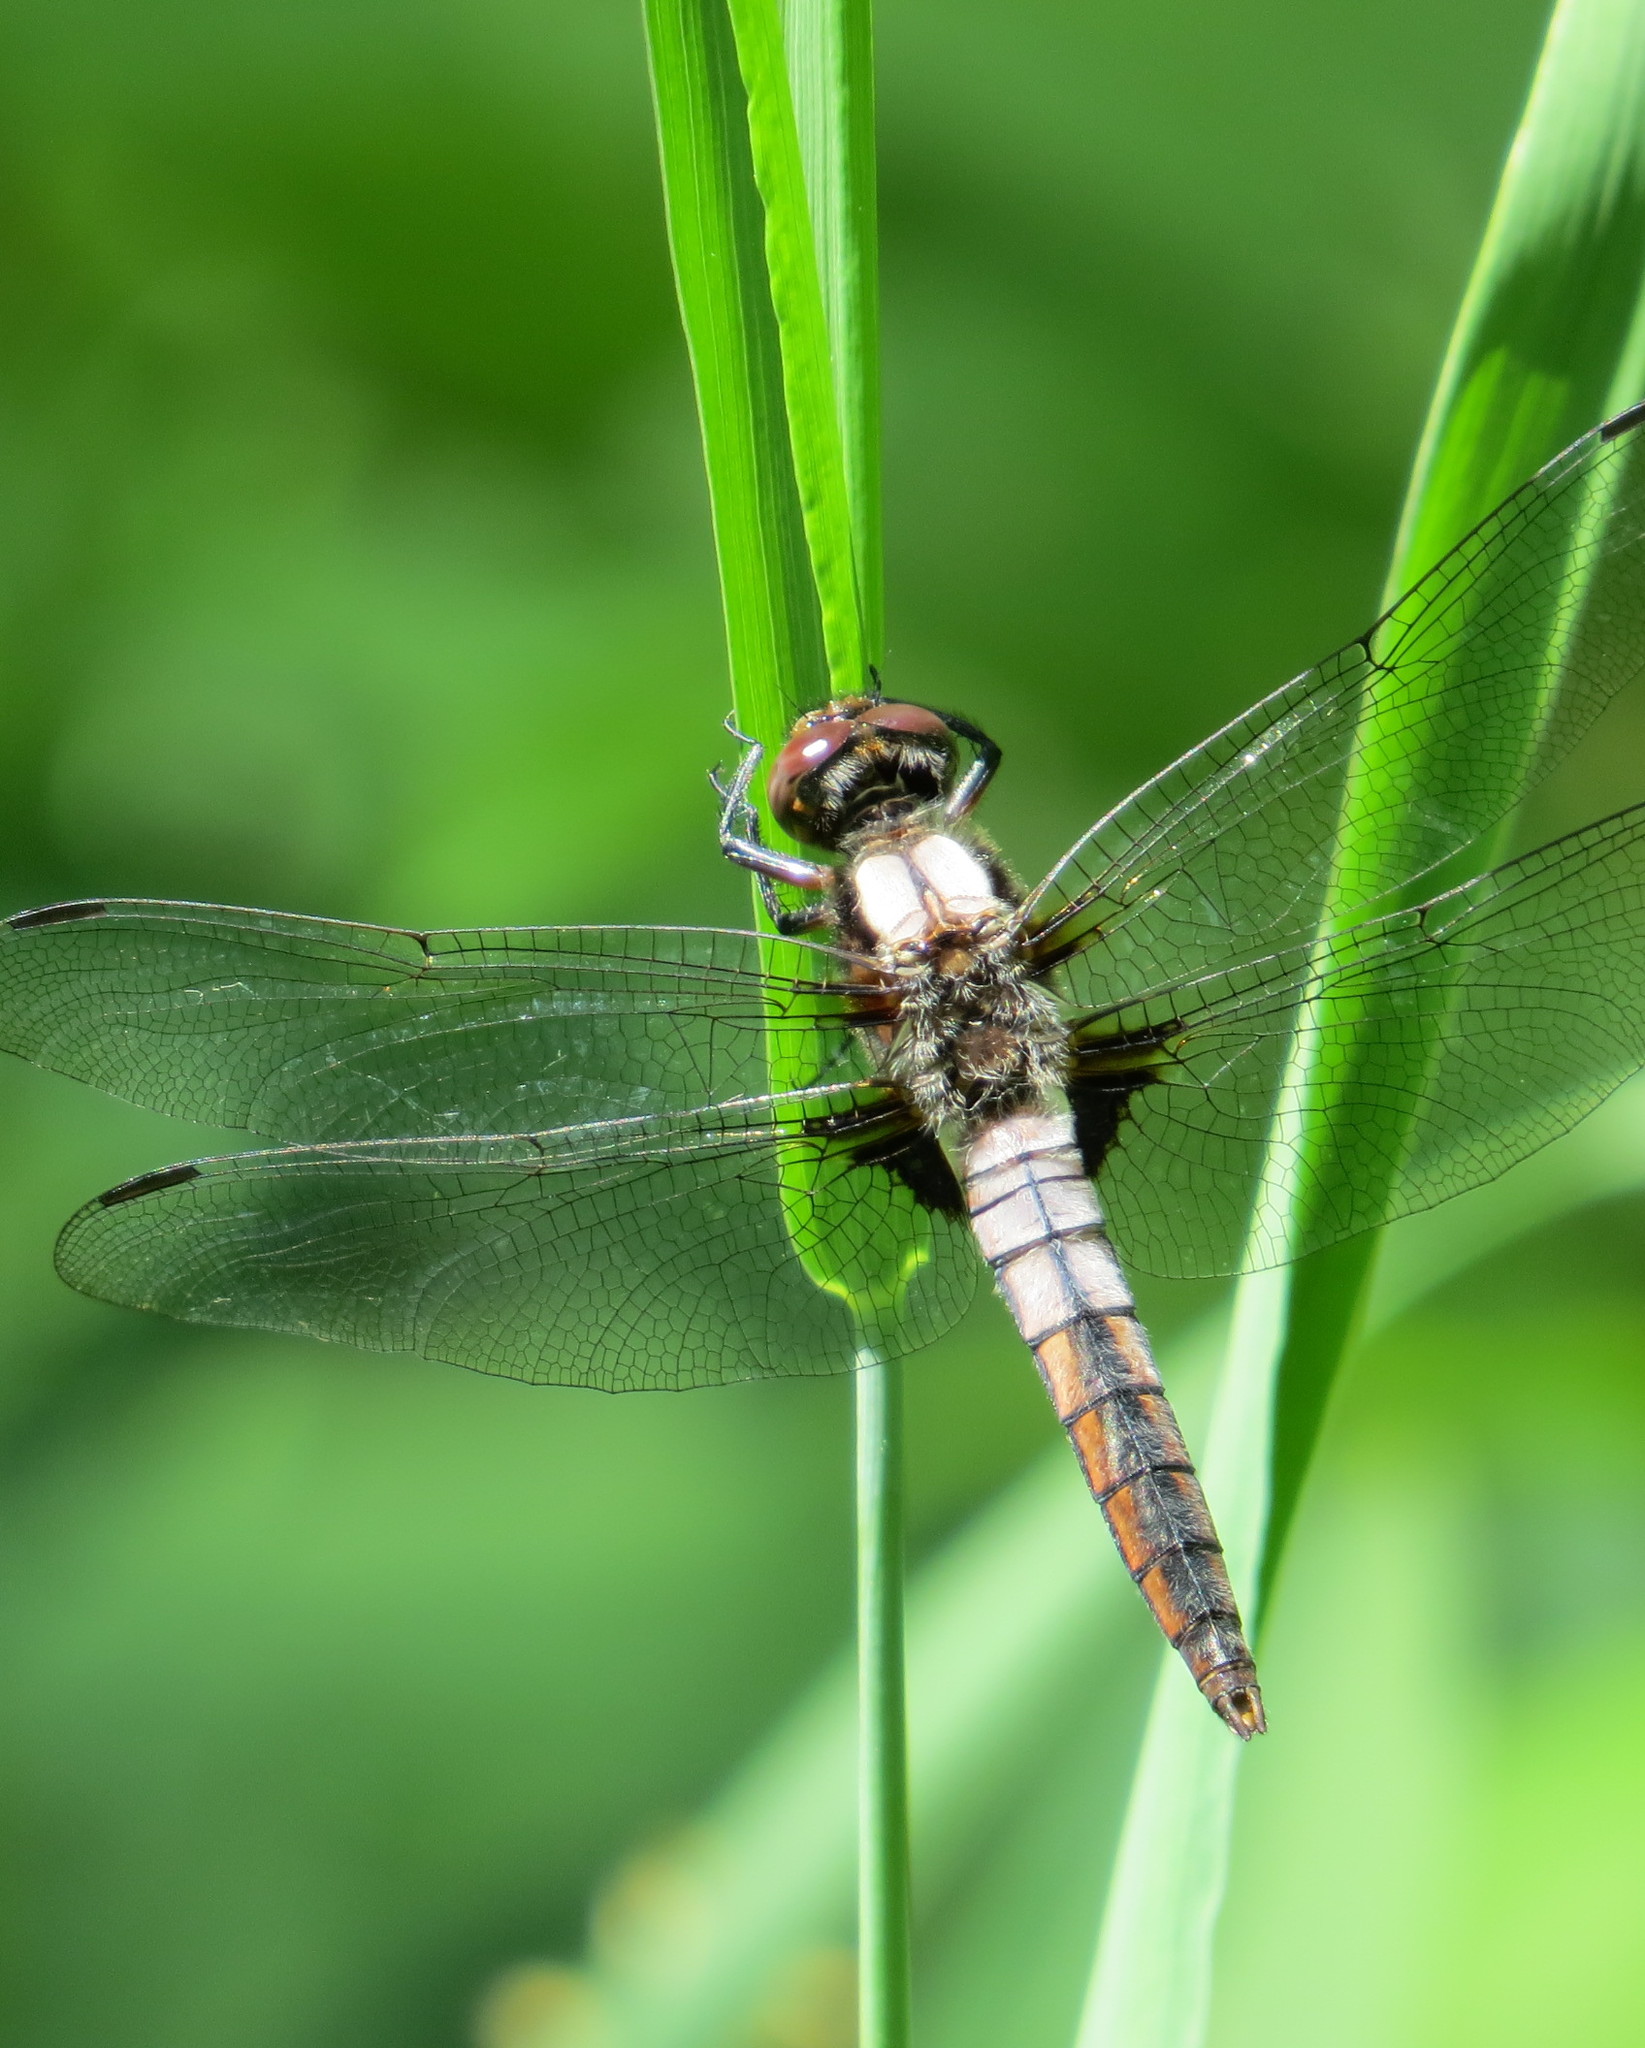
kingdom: Animalia
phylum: Arthropoda
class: Insecta
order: Odonata
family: Libellulidae
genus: Ladona
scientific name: Ladona julia
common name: Chalk-fronted corporal
